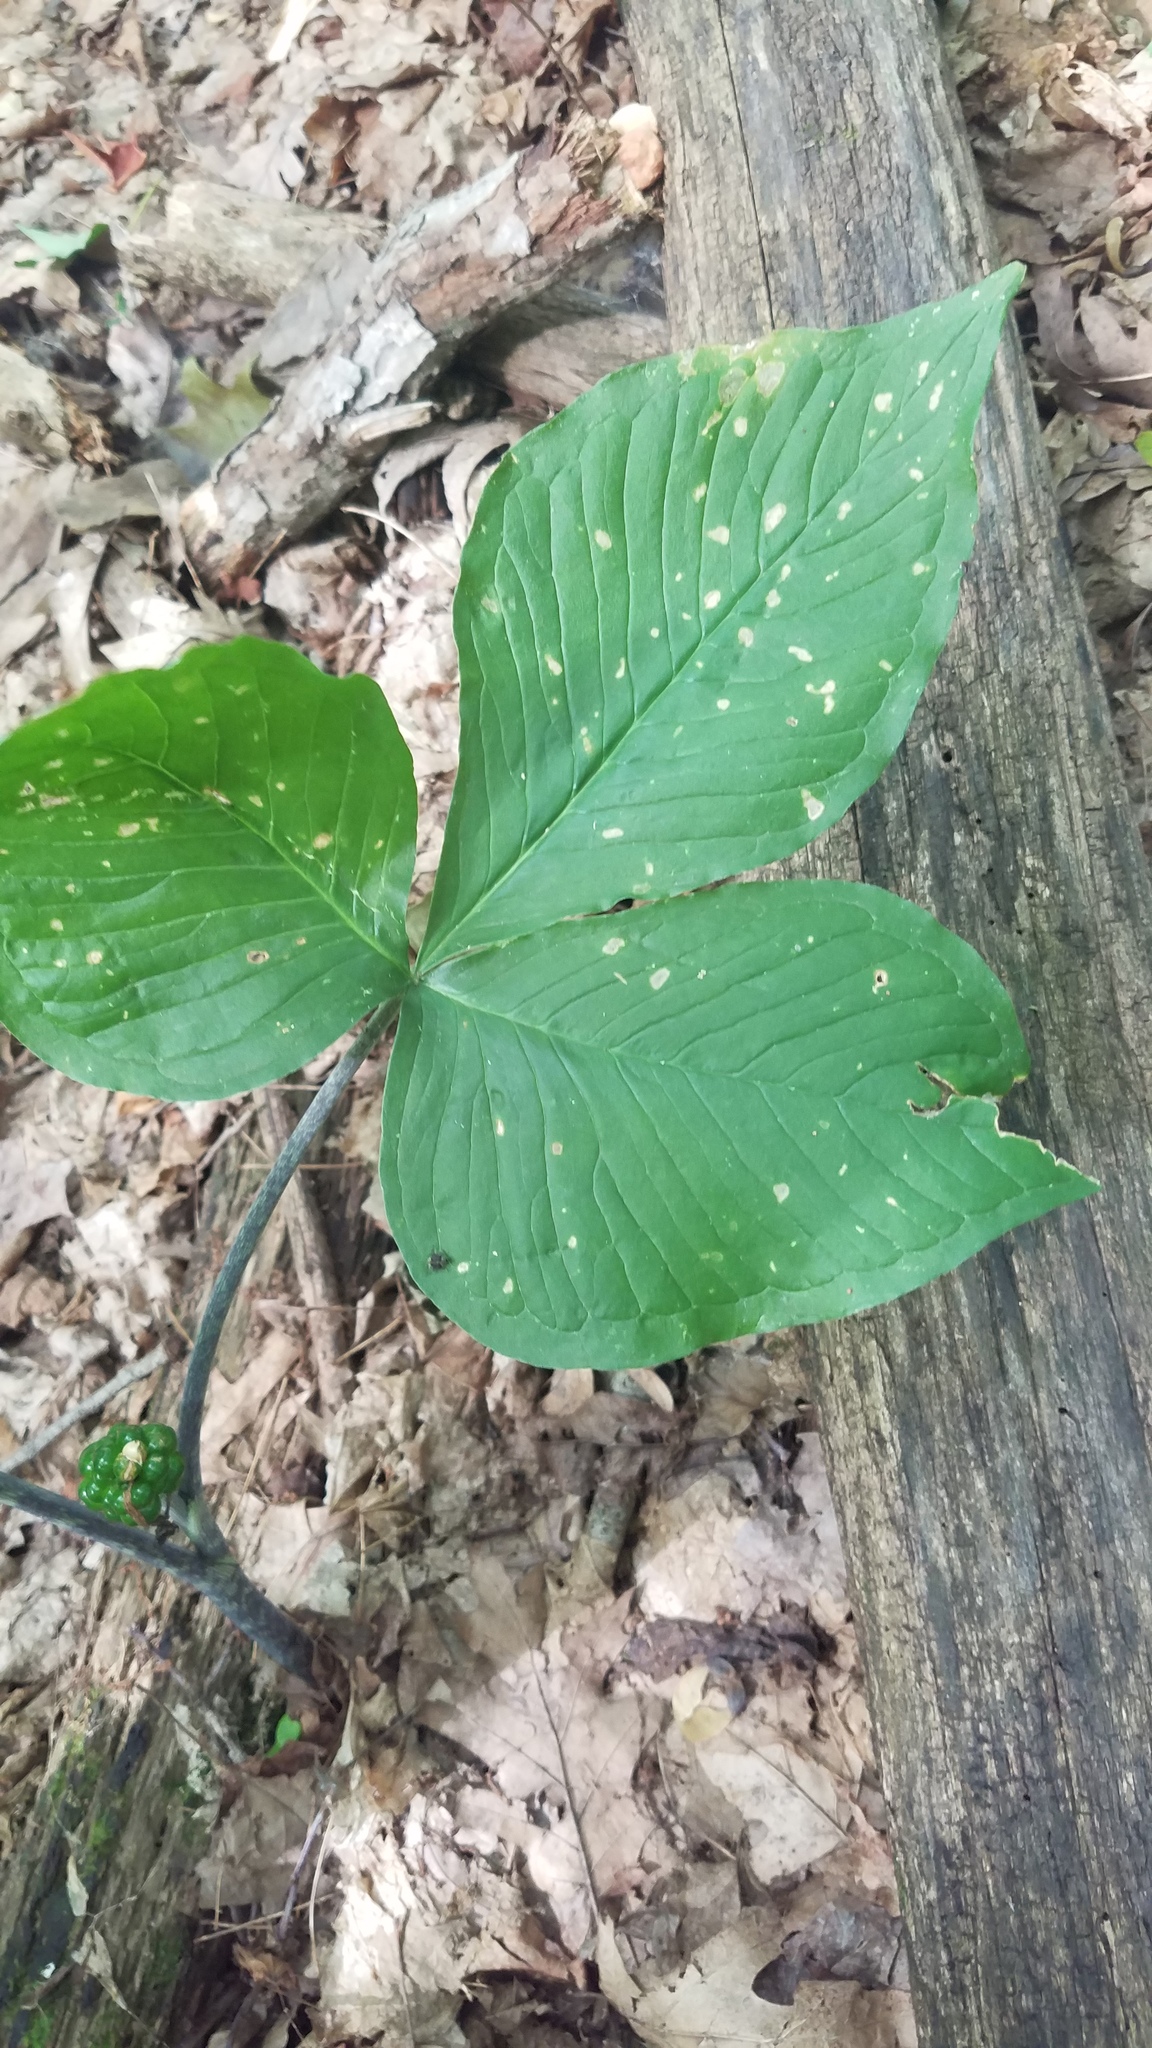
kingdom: Plantae
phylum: Tracheophyta
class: Liliopsida
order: Alismatales
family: Araceae
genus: Arisaema
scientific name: Arisaema triphyllum
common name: Jack-in-the-pulpit
